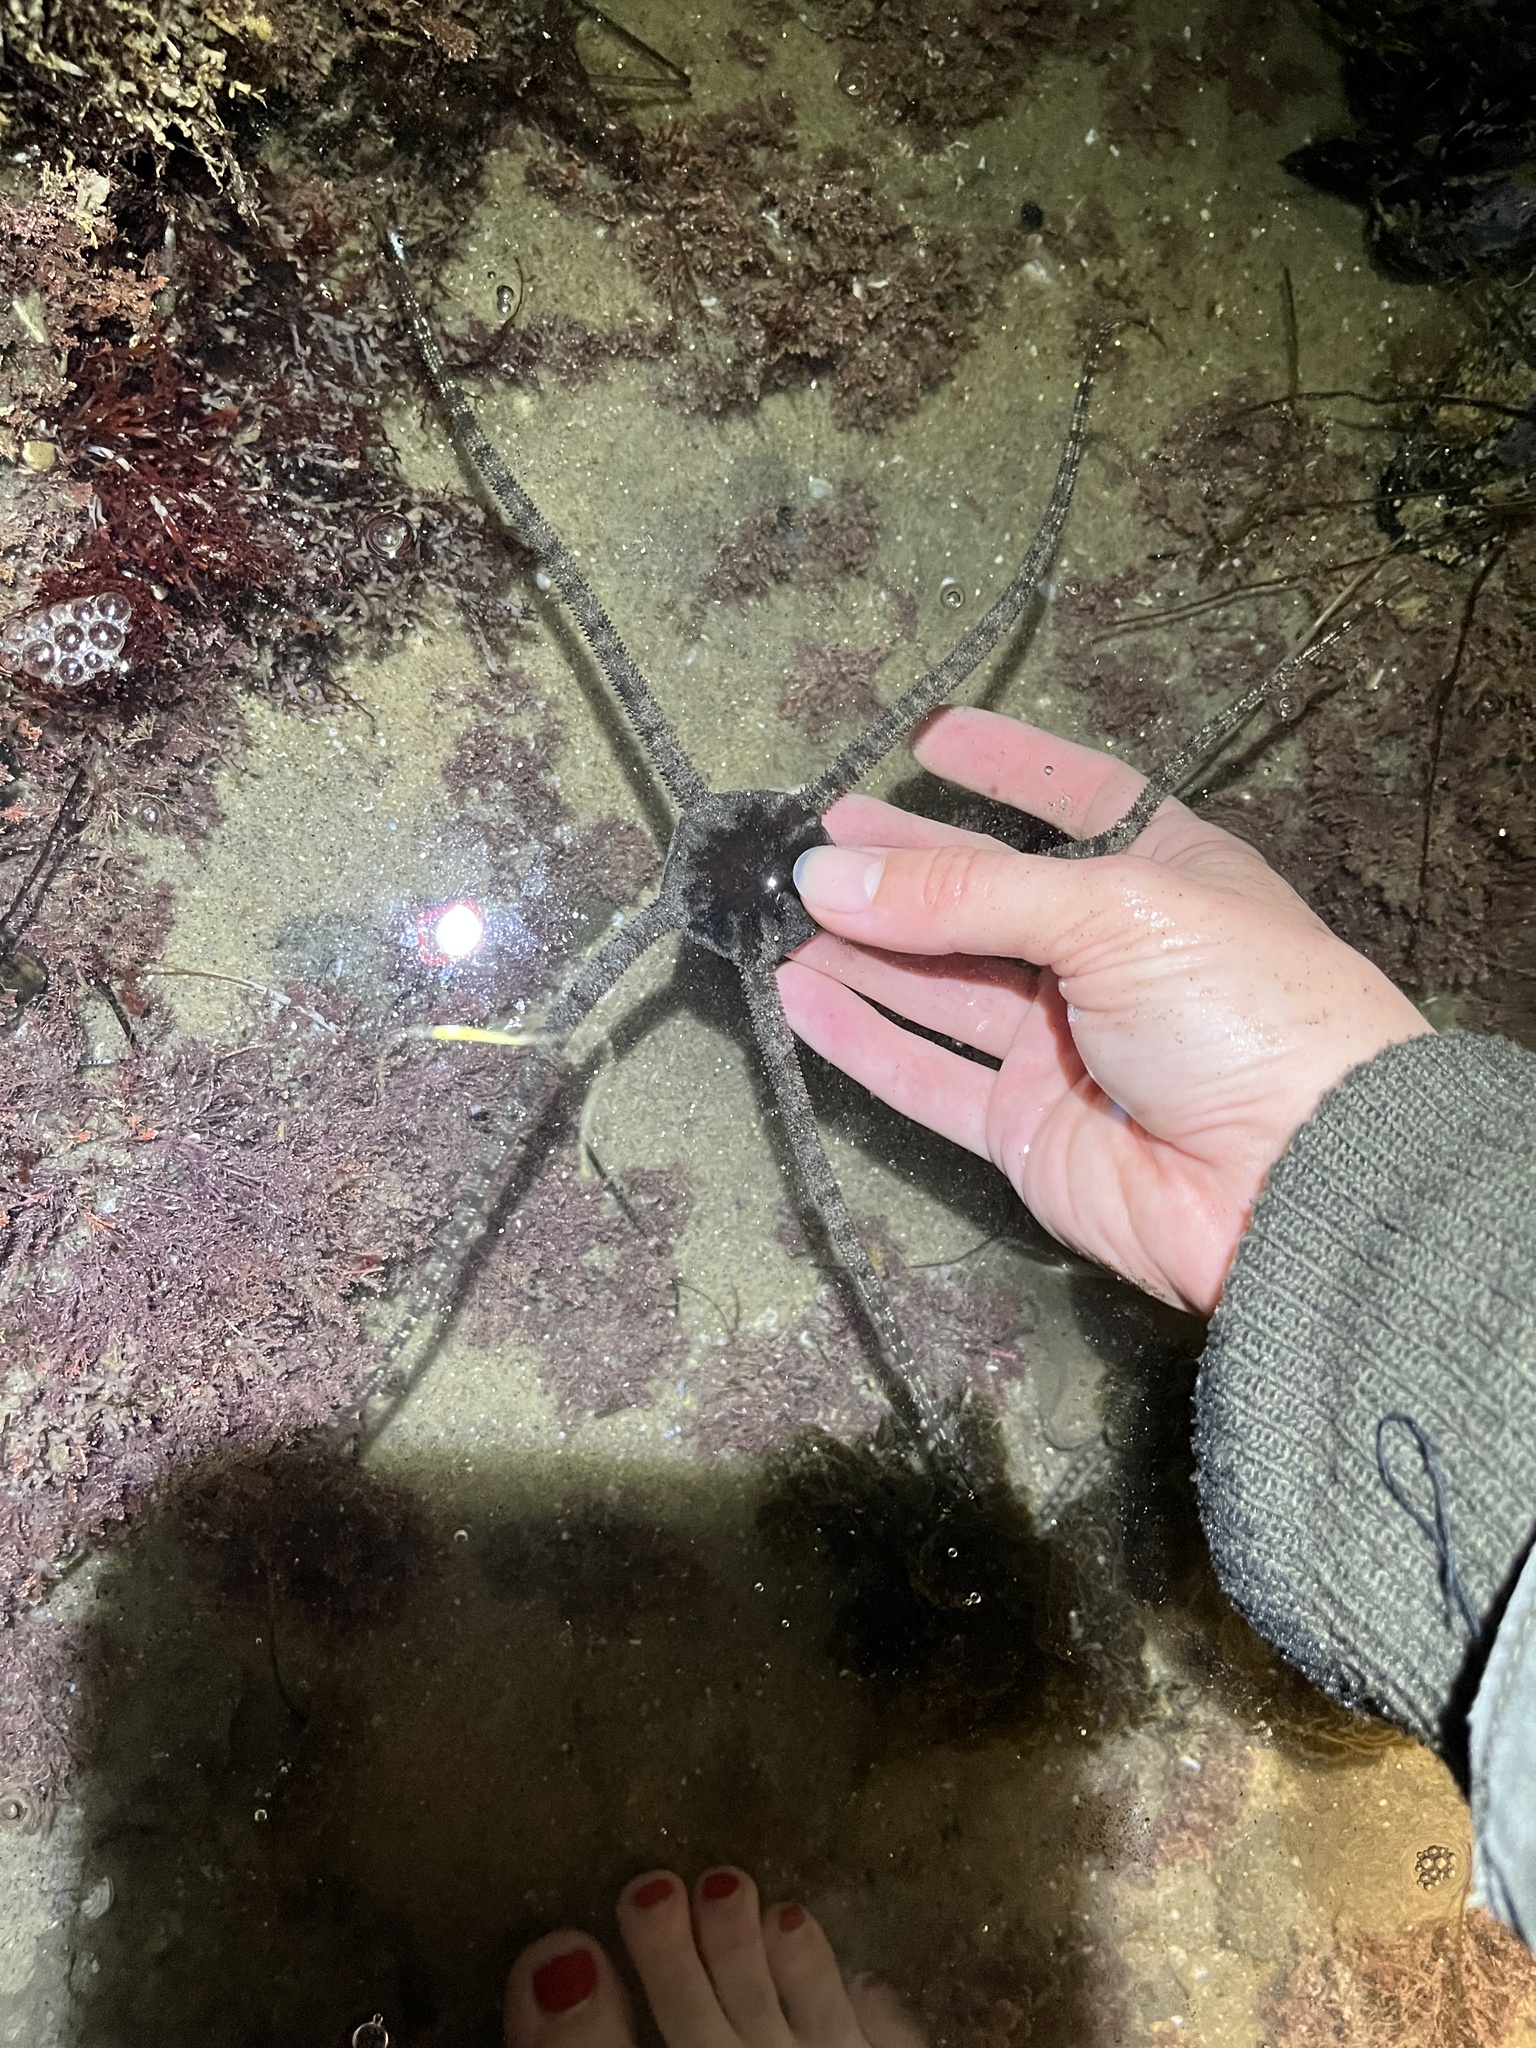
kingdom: Animalia
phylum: Echinodermata
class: Ophiuroidea
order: Ophiacanthida
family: Ophiodermatidae
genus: Ophioderma
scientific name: Ophioderma panamense
